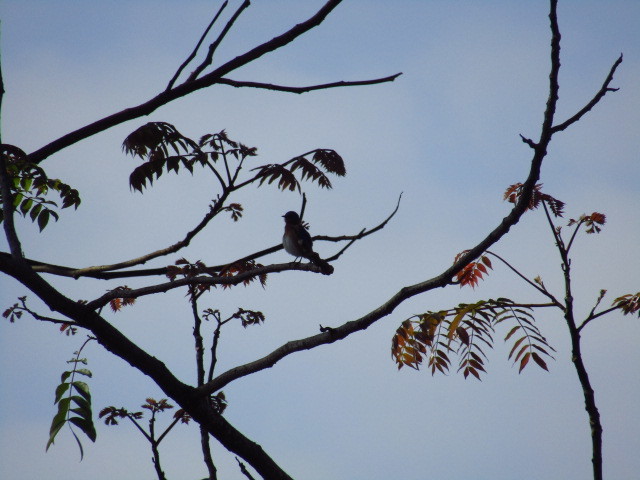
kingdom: Animalia
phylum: Chordata
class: Aves
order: Passeriformes
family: Turdidae
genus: Sialia
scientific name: Sialia sialis
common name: Eastern bluebird
